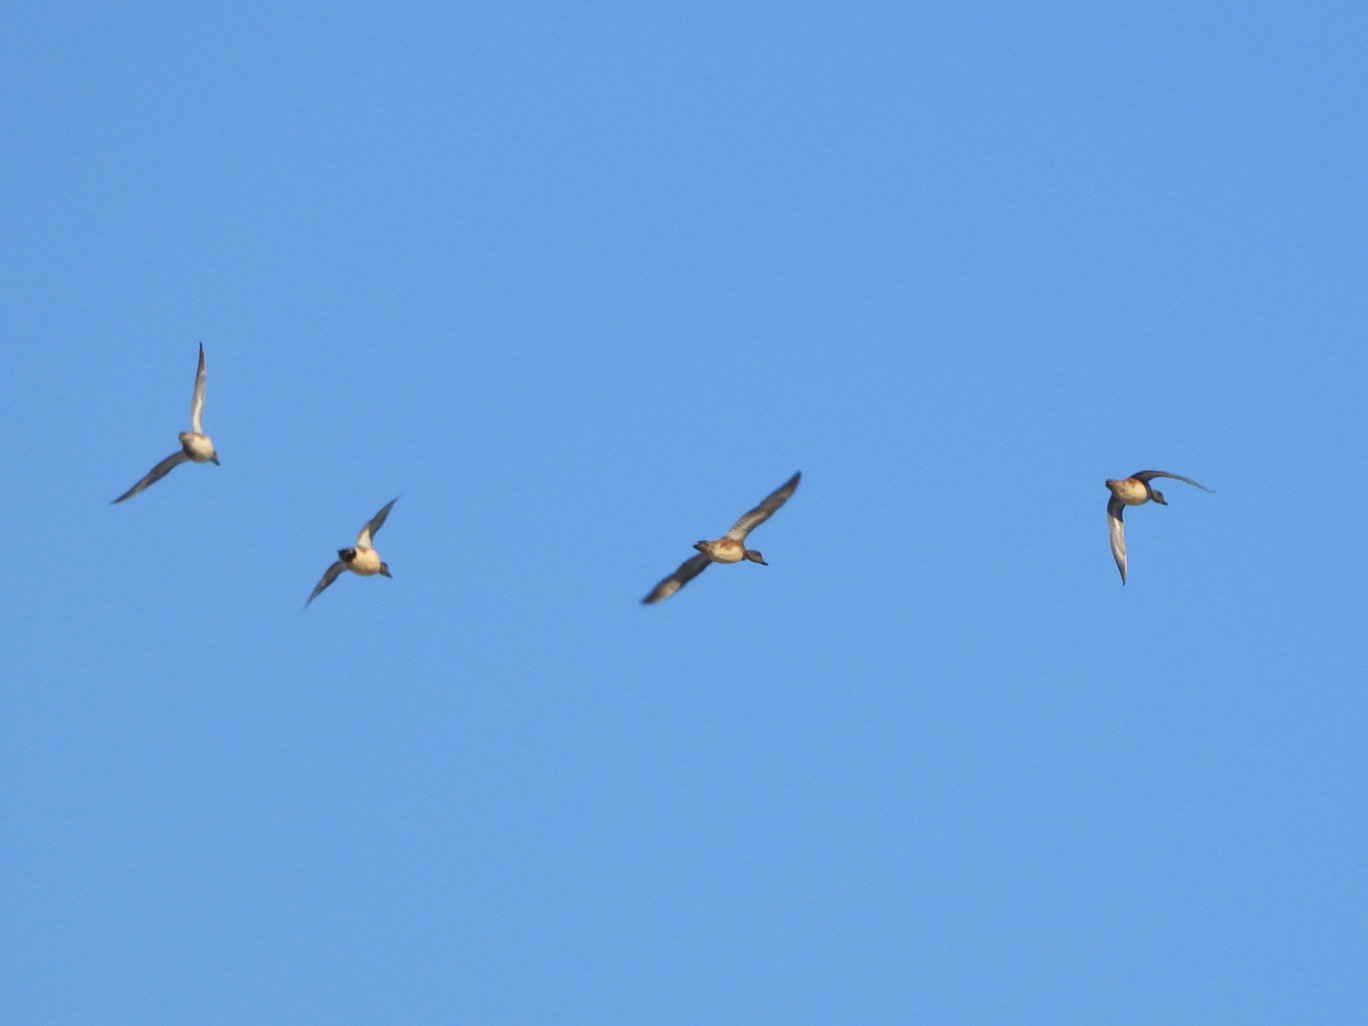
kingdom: Animalia
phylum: Chordata
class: Aves
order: Anseriformes
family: Anatidae
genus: Mareca
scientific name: Mareca americana
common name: American wigeon
